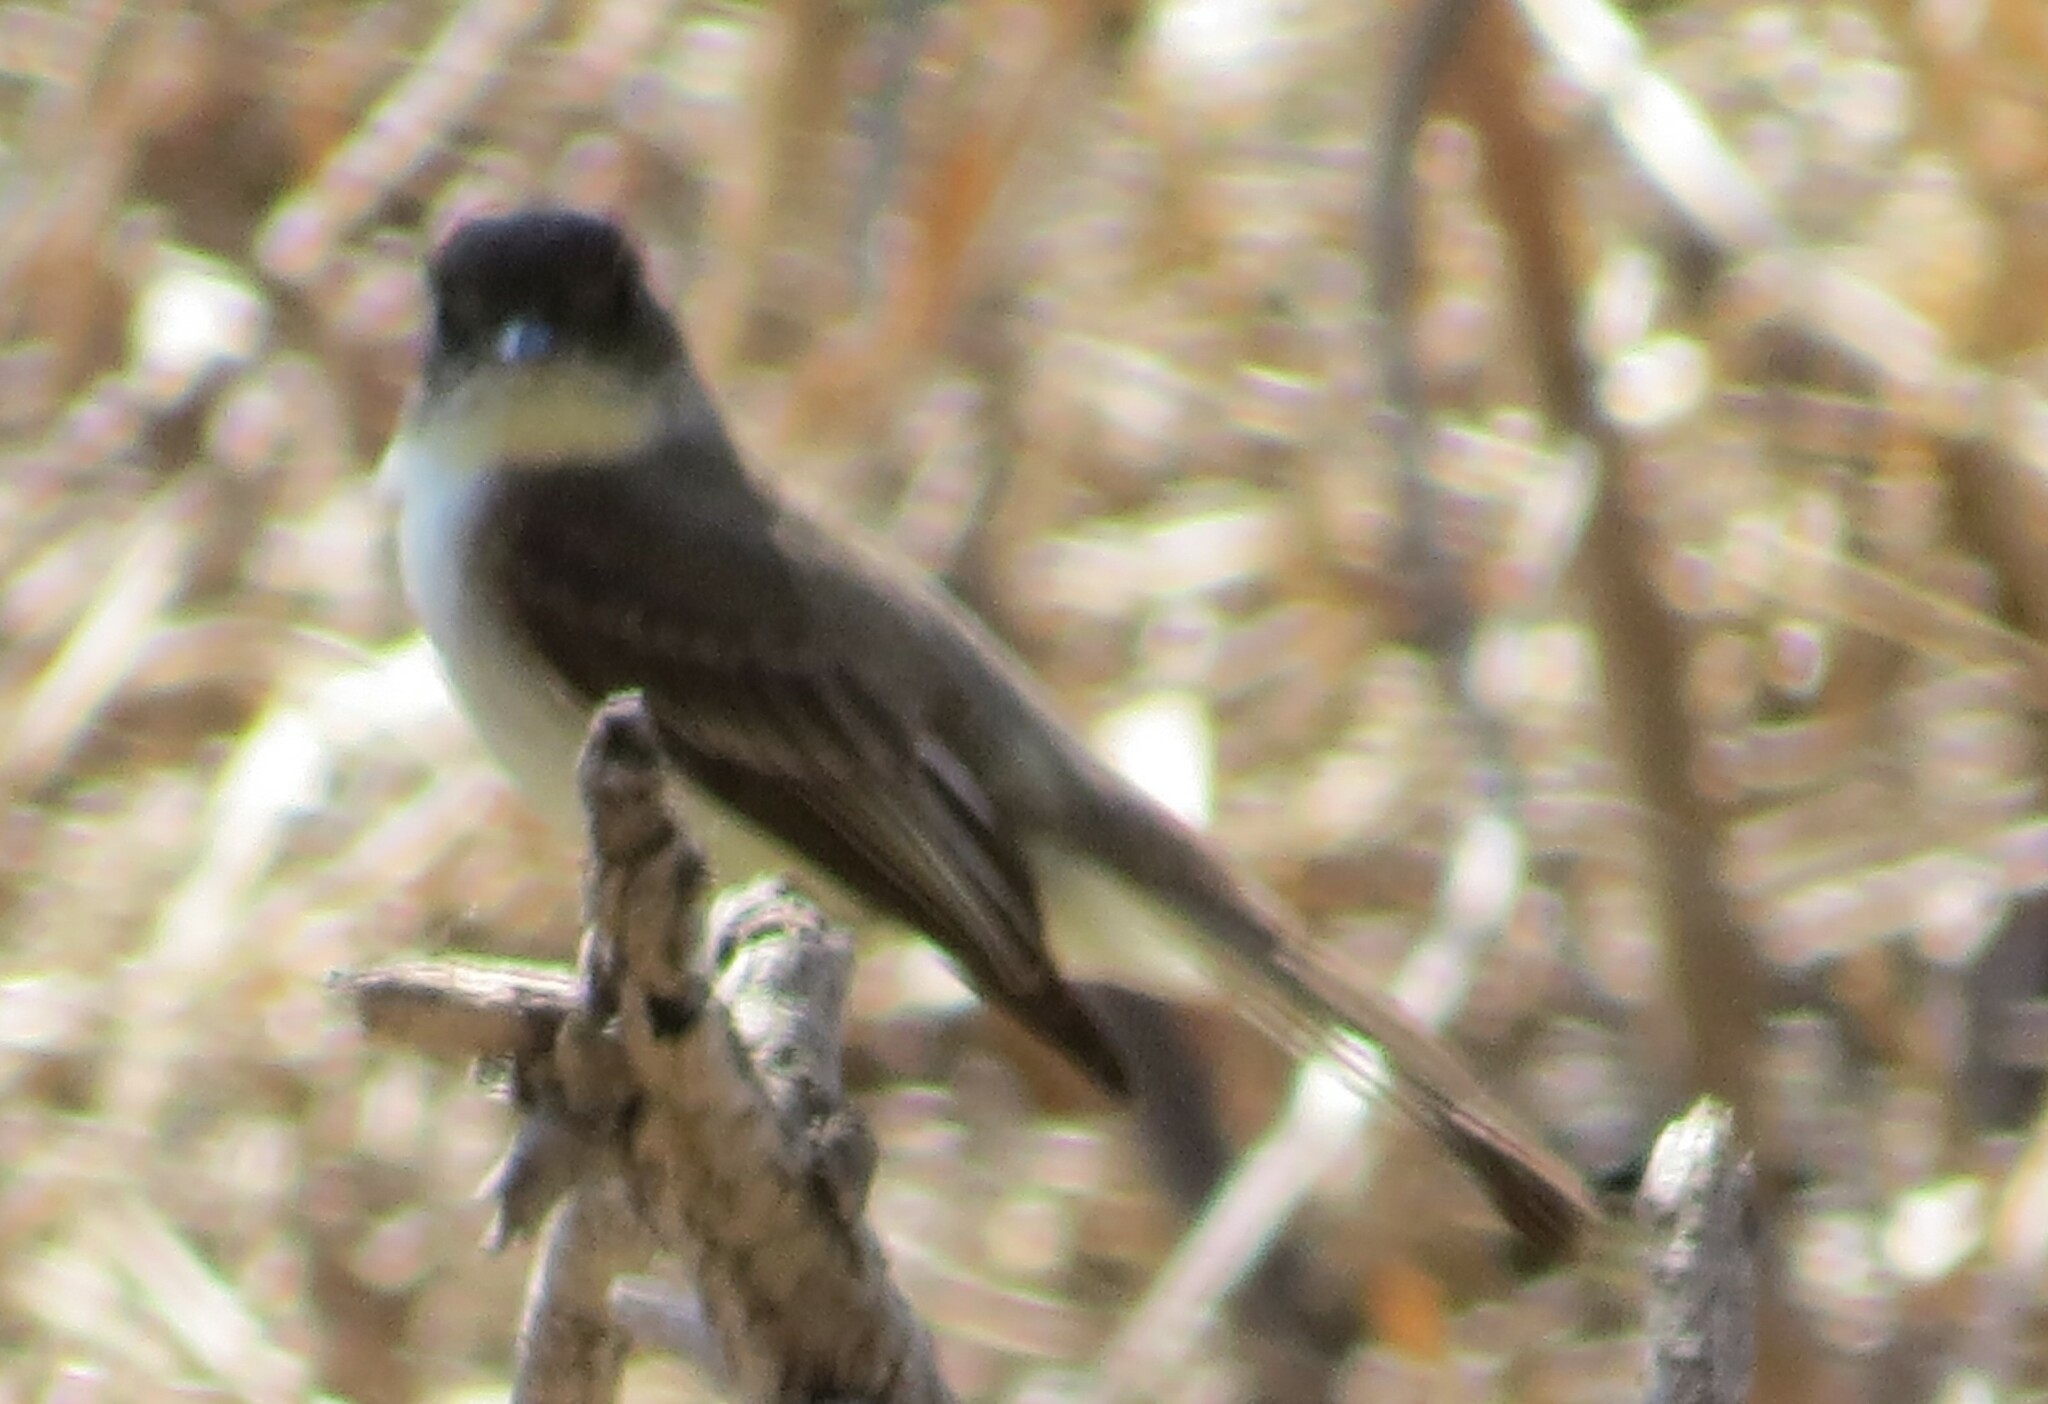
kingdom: Animalia
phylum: Chordata
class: Aves
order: Passeriformes
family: Tyrannidae
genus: Sayornis
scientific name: Sayornis phoebe
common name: Eastern phoebe
